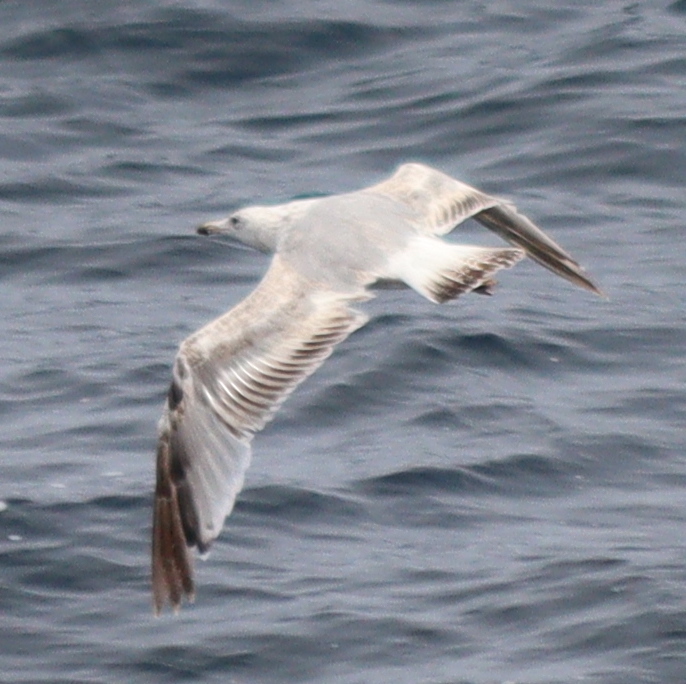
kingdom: Animalia
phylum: Chordata
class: Aves
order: Charadriiformes
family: Laridae
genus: Larus
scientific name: Larus argentatus
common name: Herring gull
